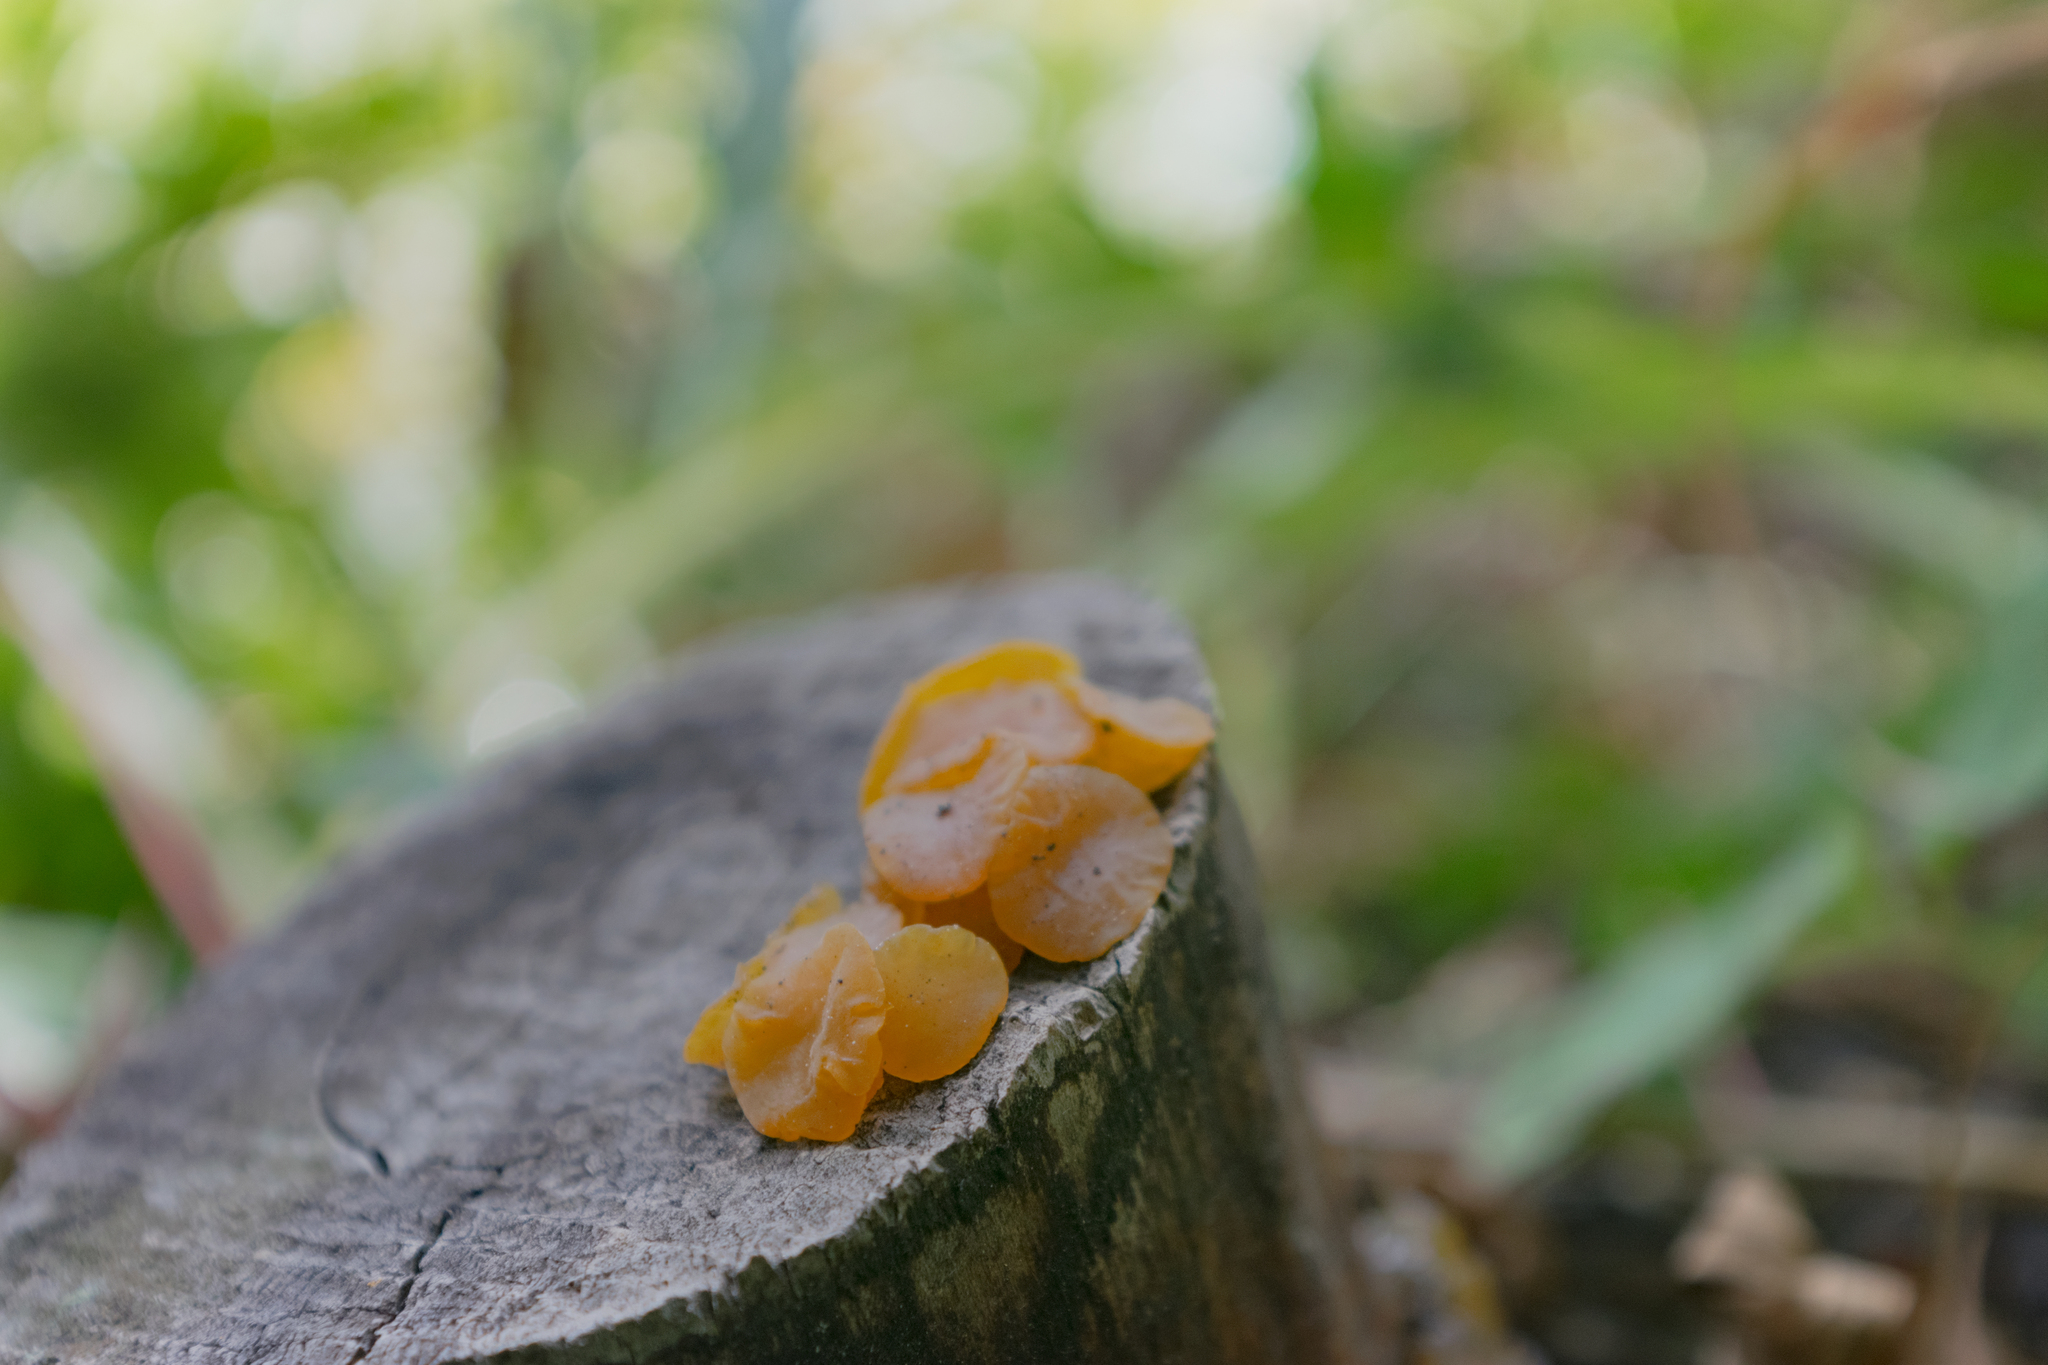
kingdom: Fungi
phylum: Basidiomycota
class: Dacrymycetes
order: Dacrymycetales
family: Dacrymycetaceae
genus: Guepiniopsis
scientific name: Guepiniopsis alpina
